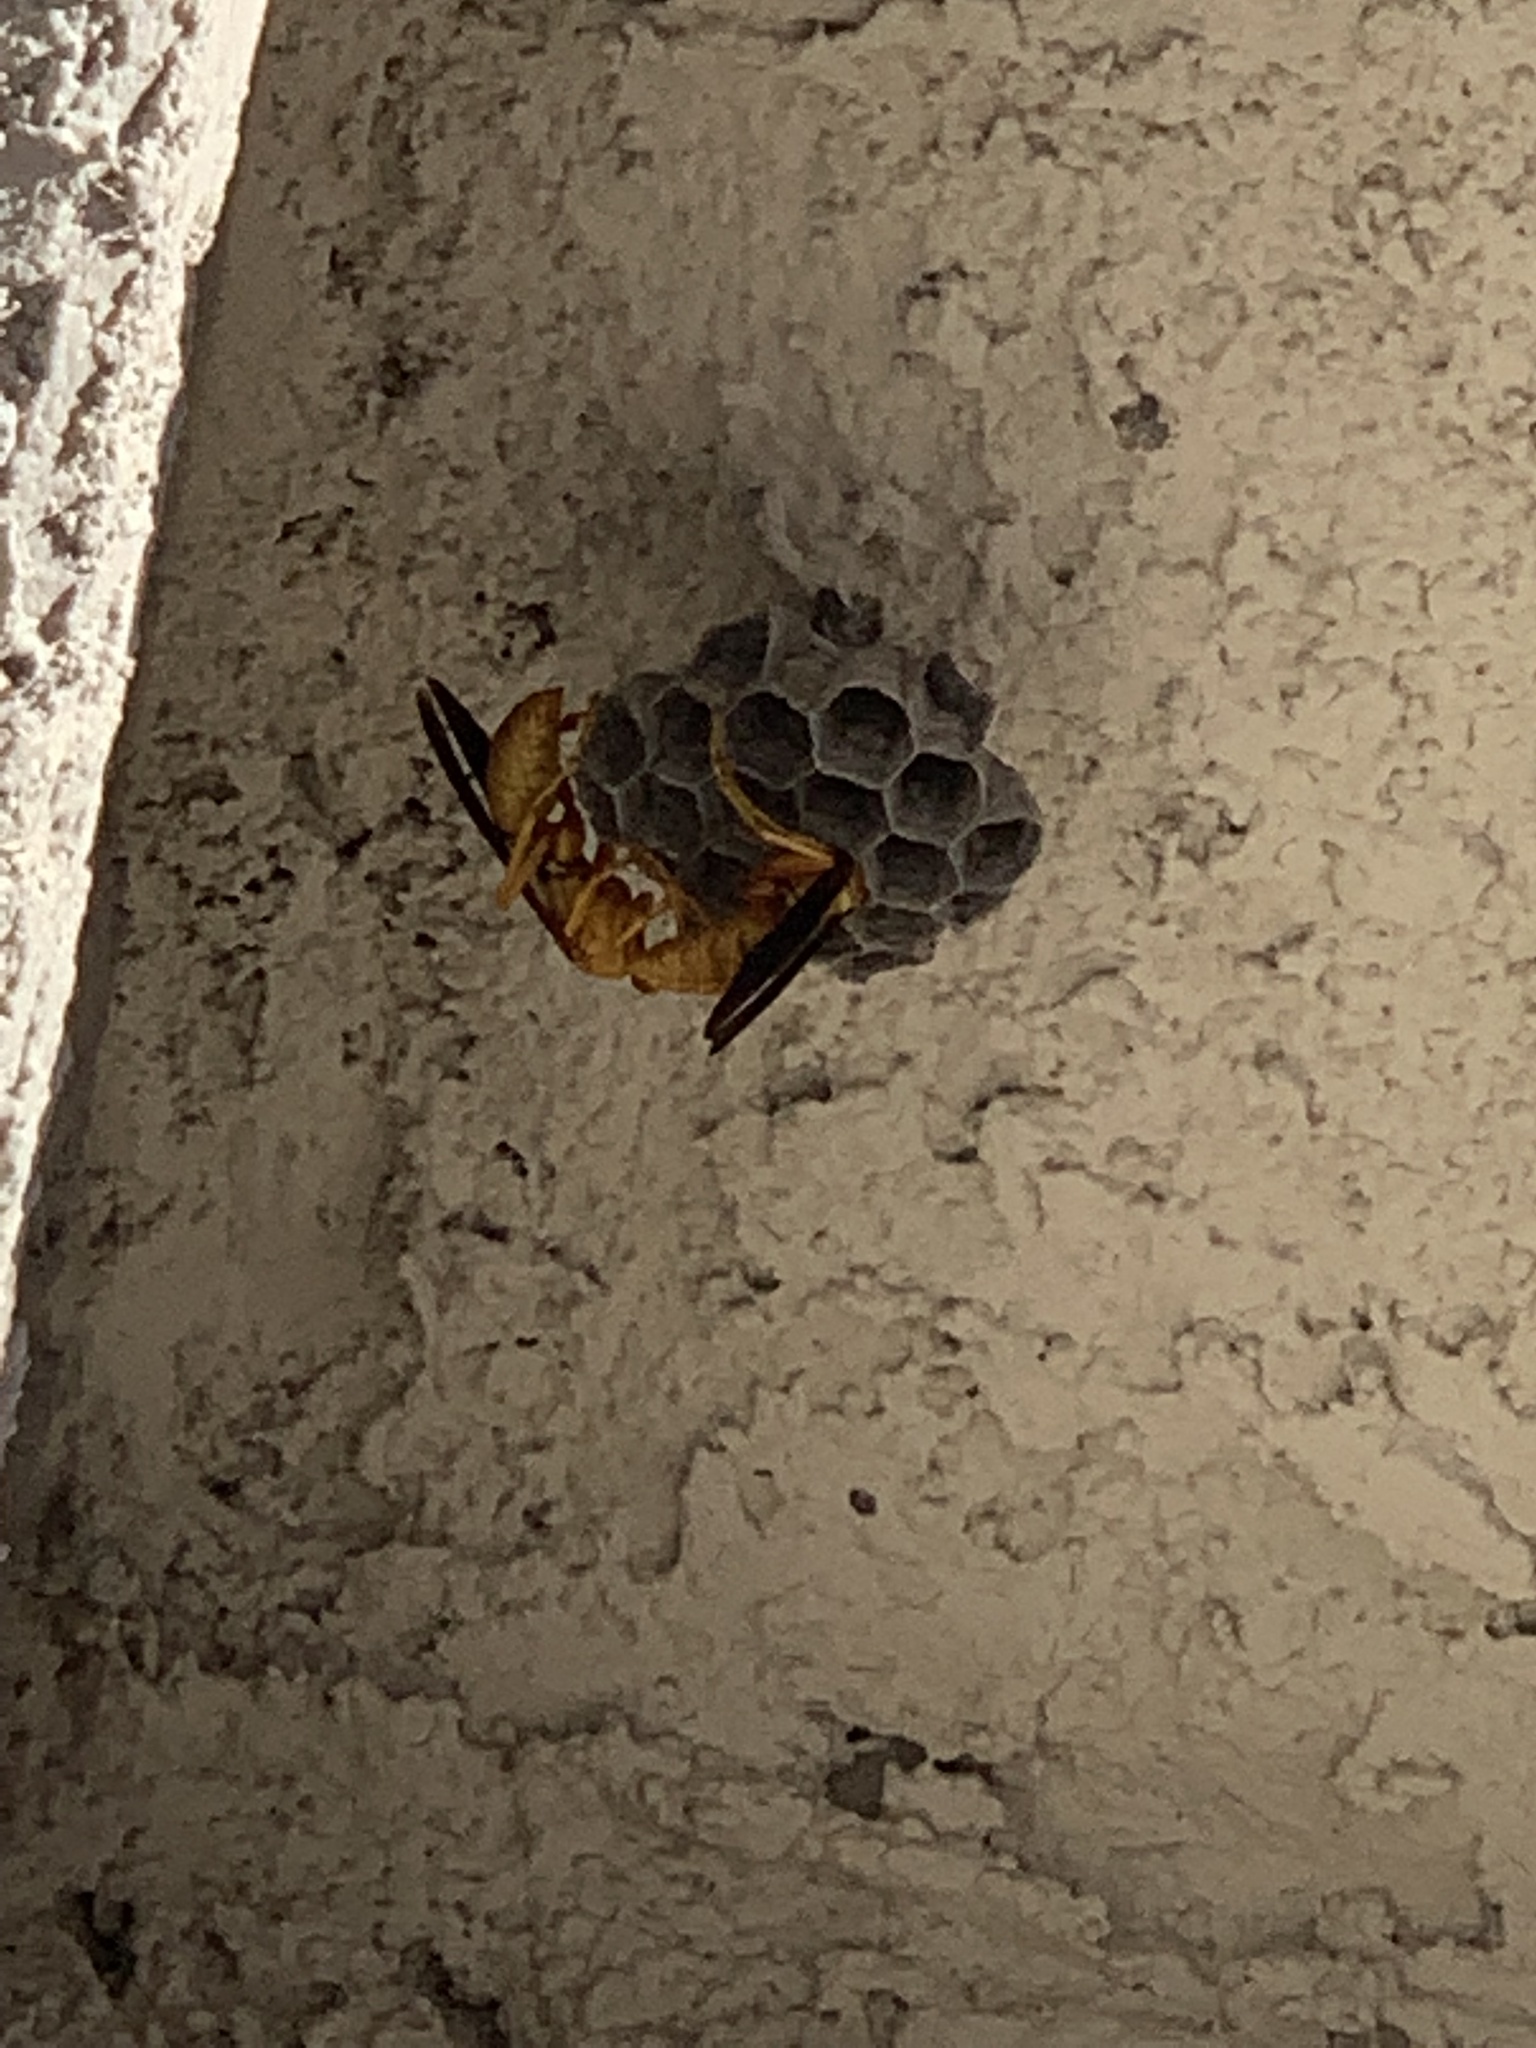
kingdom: Animalia
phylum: Arthropoda
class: Insecta
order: Hymenoptera
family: Eumenidae
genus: Polistes
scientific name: Polistes flavus
